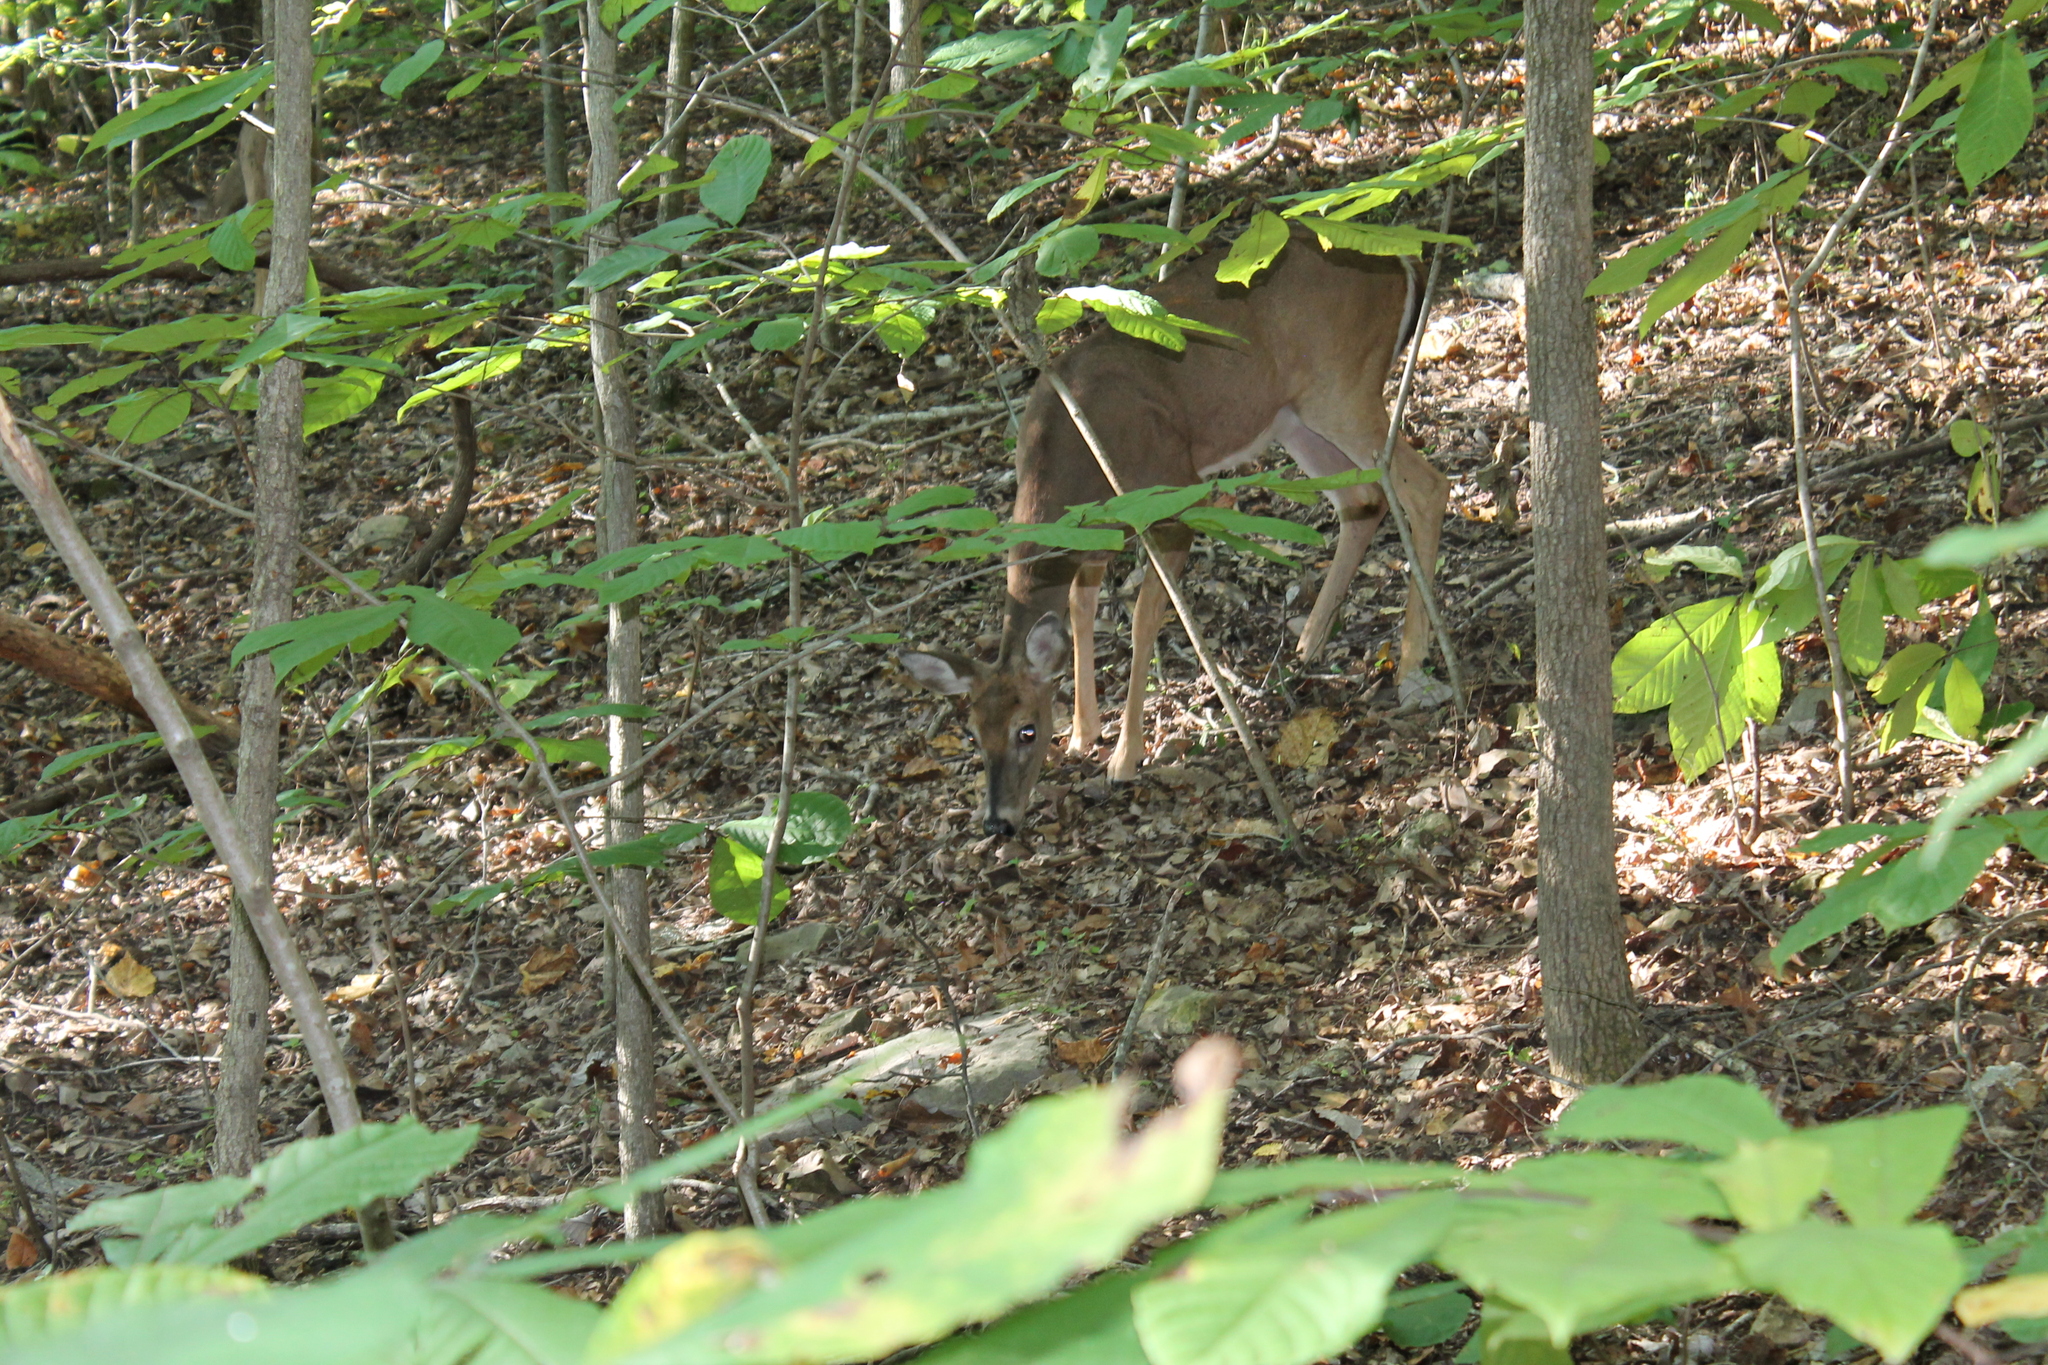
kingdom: Animalia
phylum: Chordata
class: Mammalia
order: Artiodactyla
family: Cervidae
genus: Odocoileus
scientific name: Odocoileus virginianus
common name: White-tailed deer
